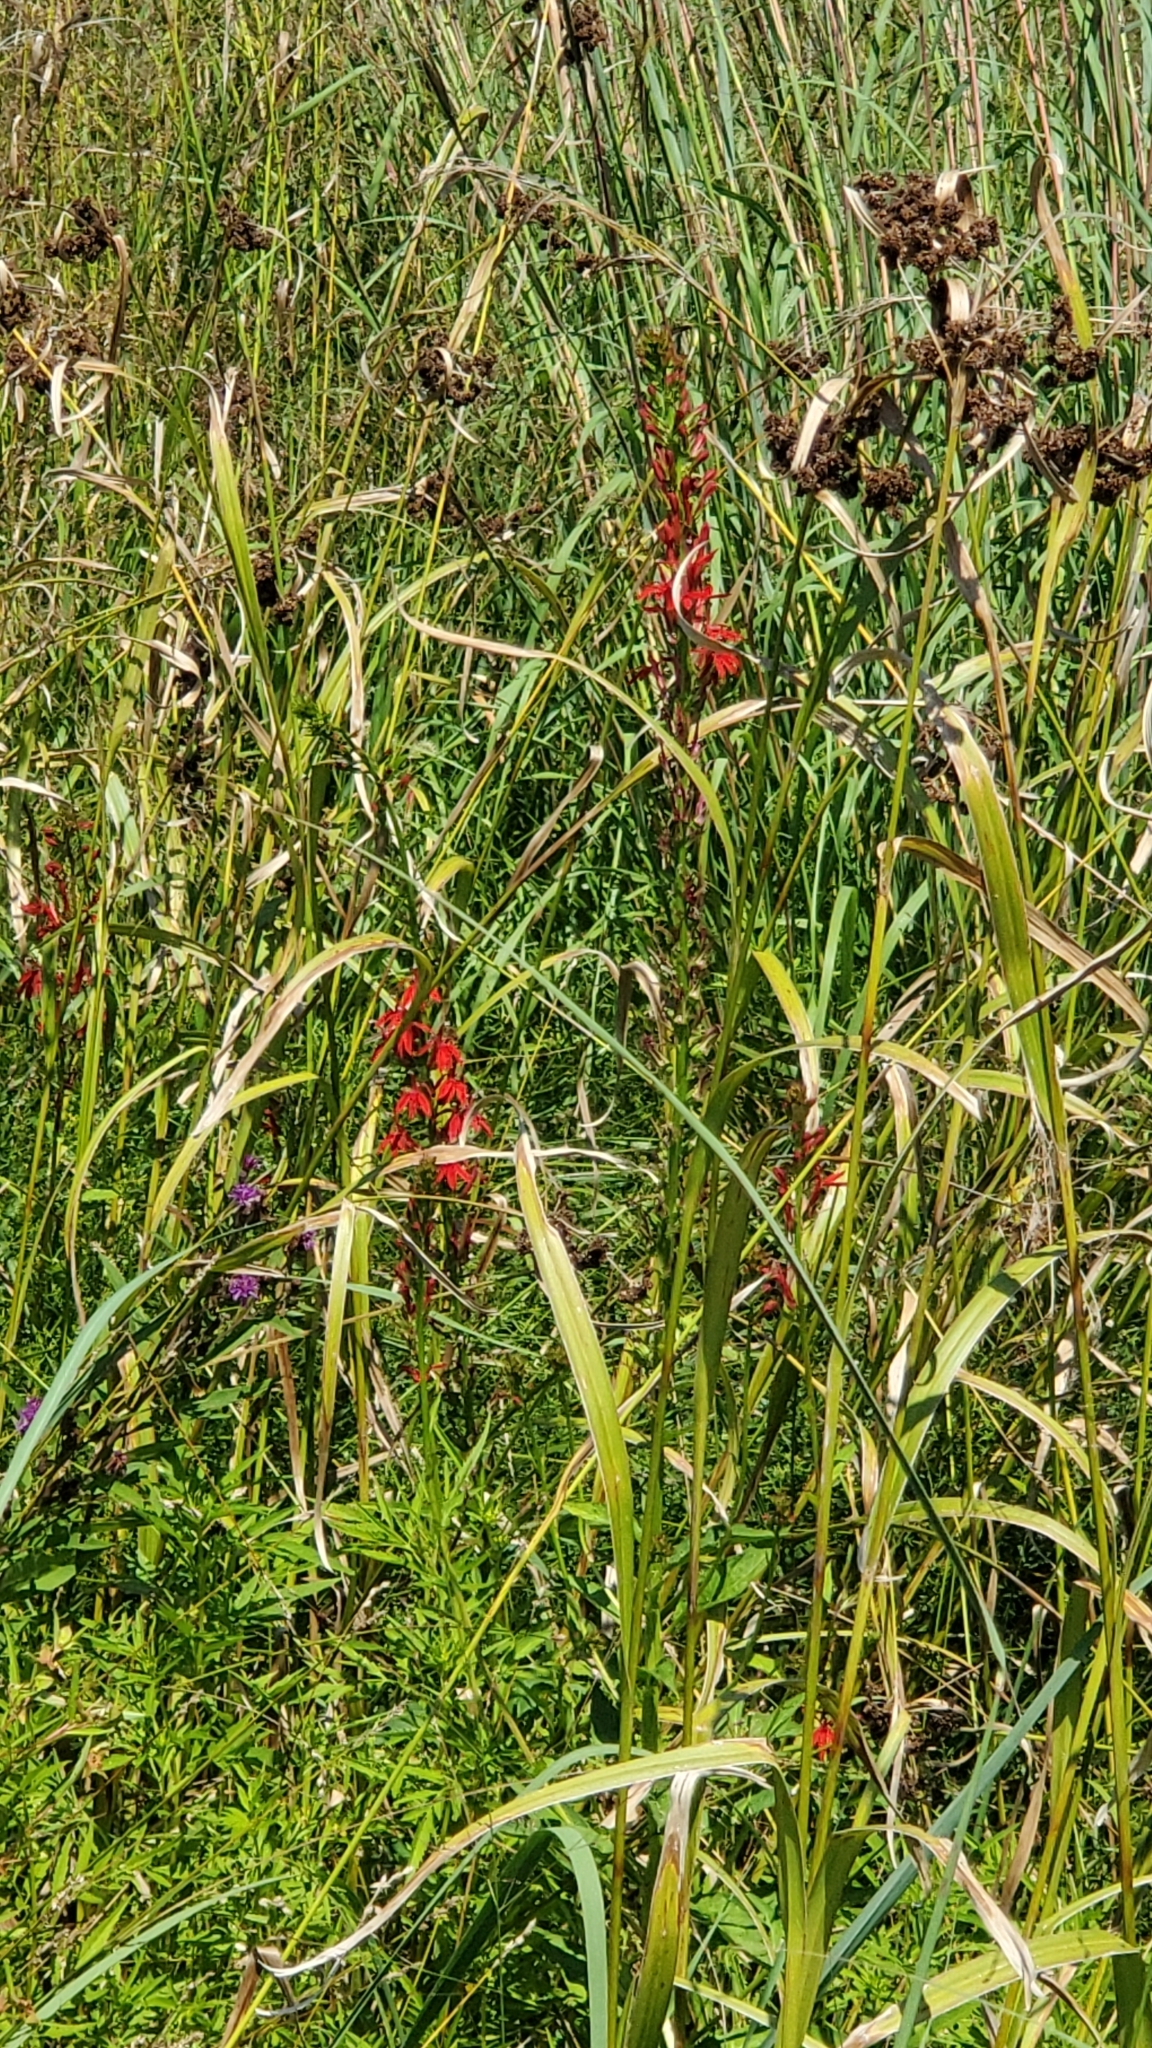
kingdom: Plantae
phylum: Tracheophyta
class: Magnoliopsida
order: Asterales
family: Campanulaceae
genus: Lobelia
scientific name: Lobelia cardinalis
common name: Cardinal flower
